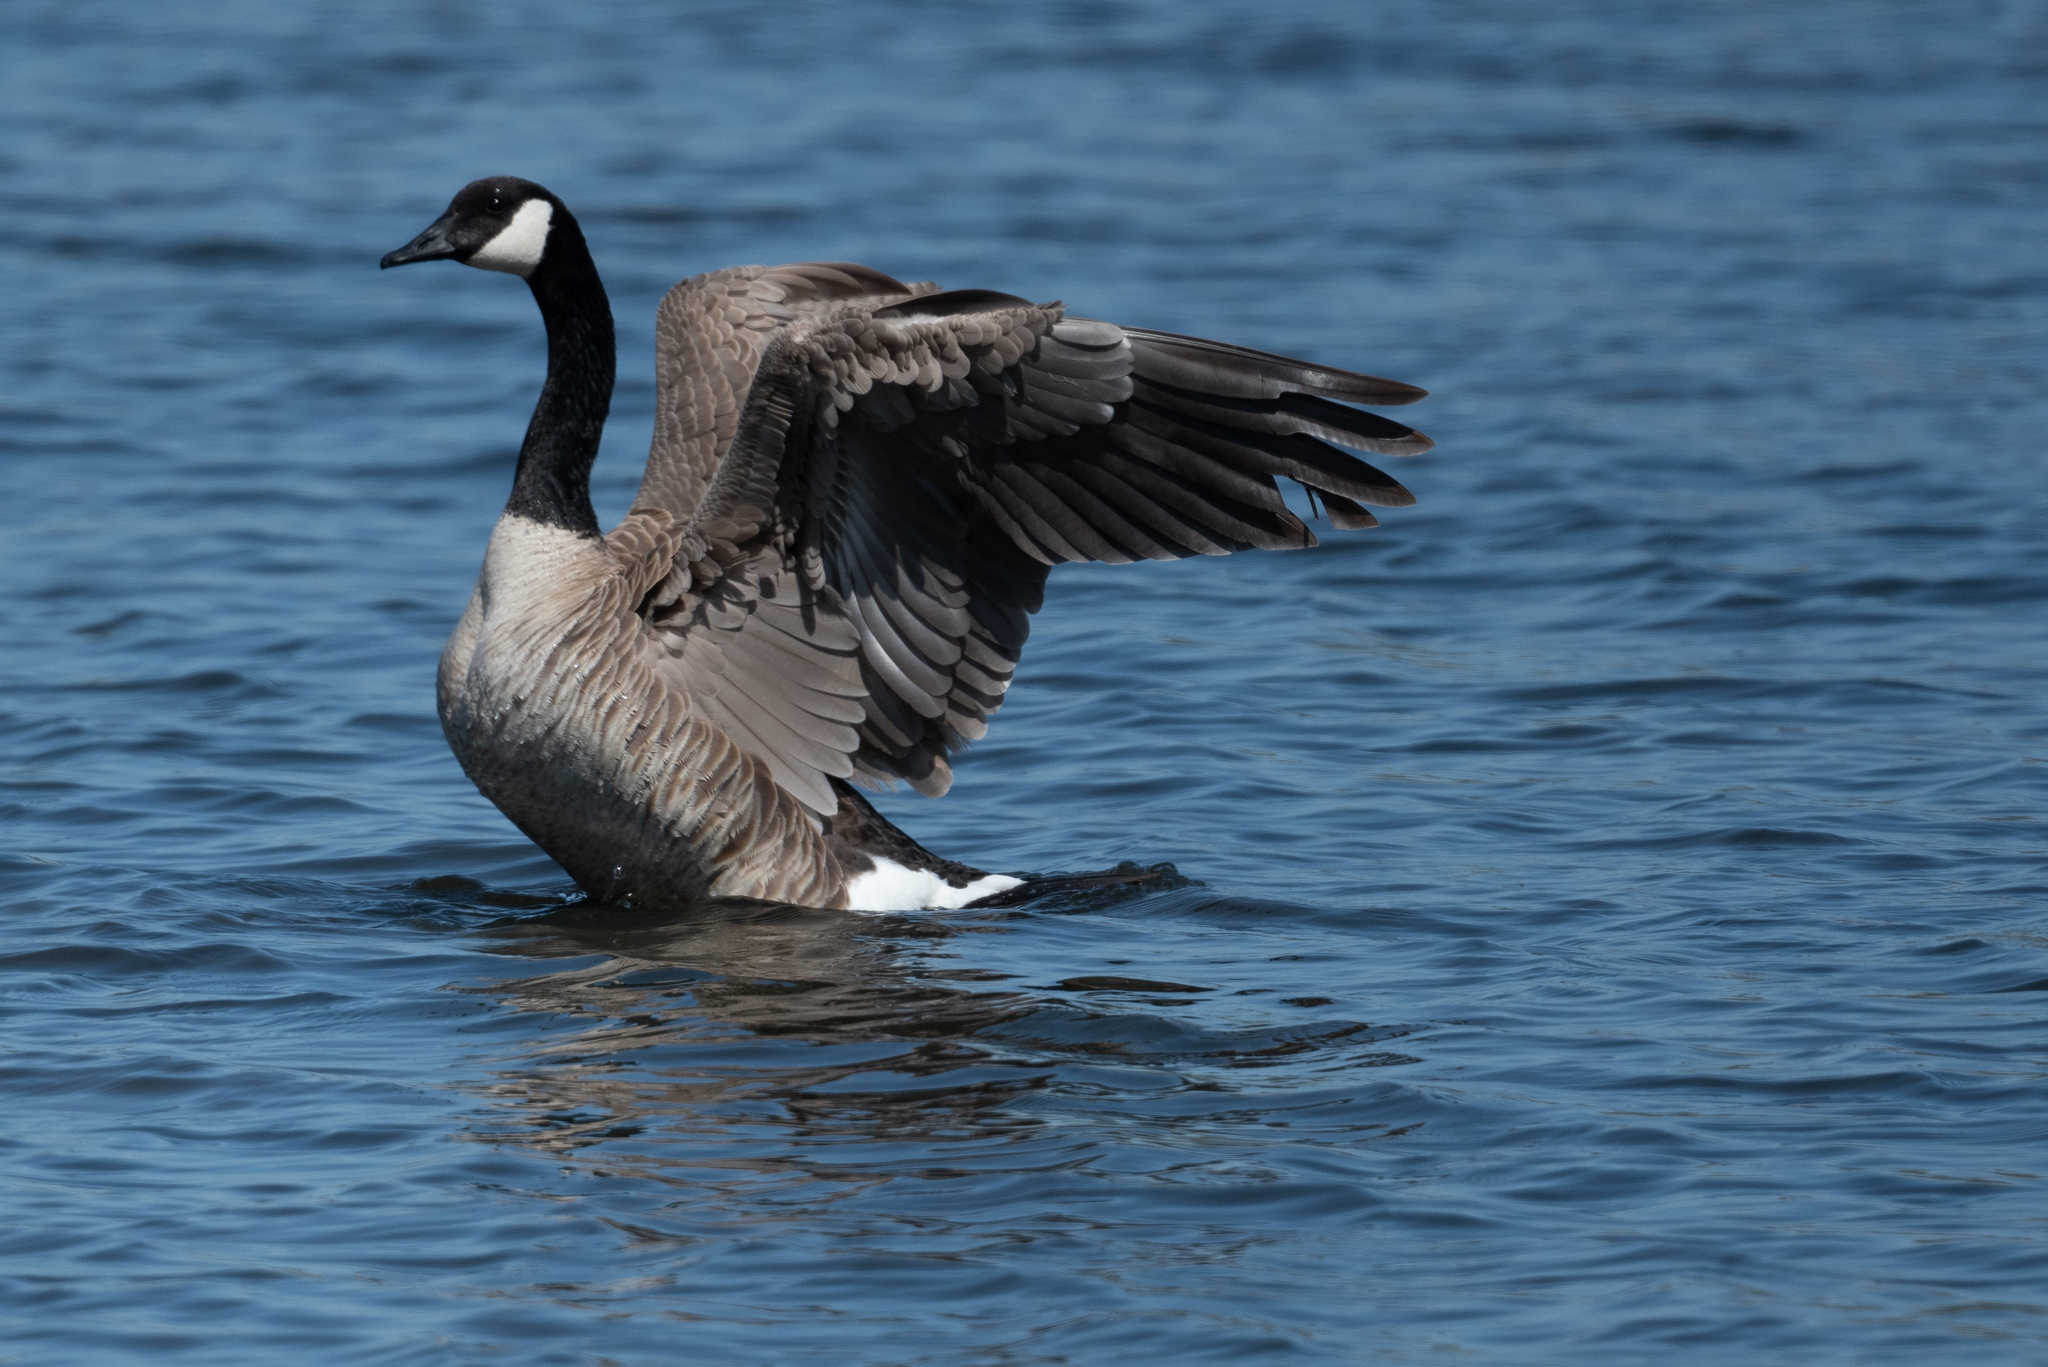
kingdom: Animalia
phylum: Chordata
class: Aves
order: Anseriformes
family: Anatidae
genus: Branta
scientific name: Branta canadensis
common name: Canada goose
